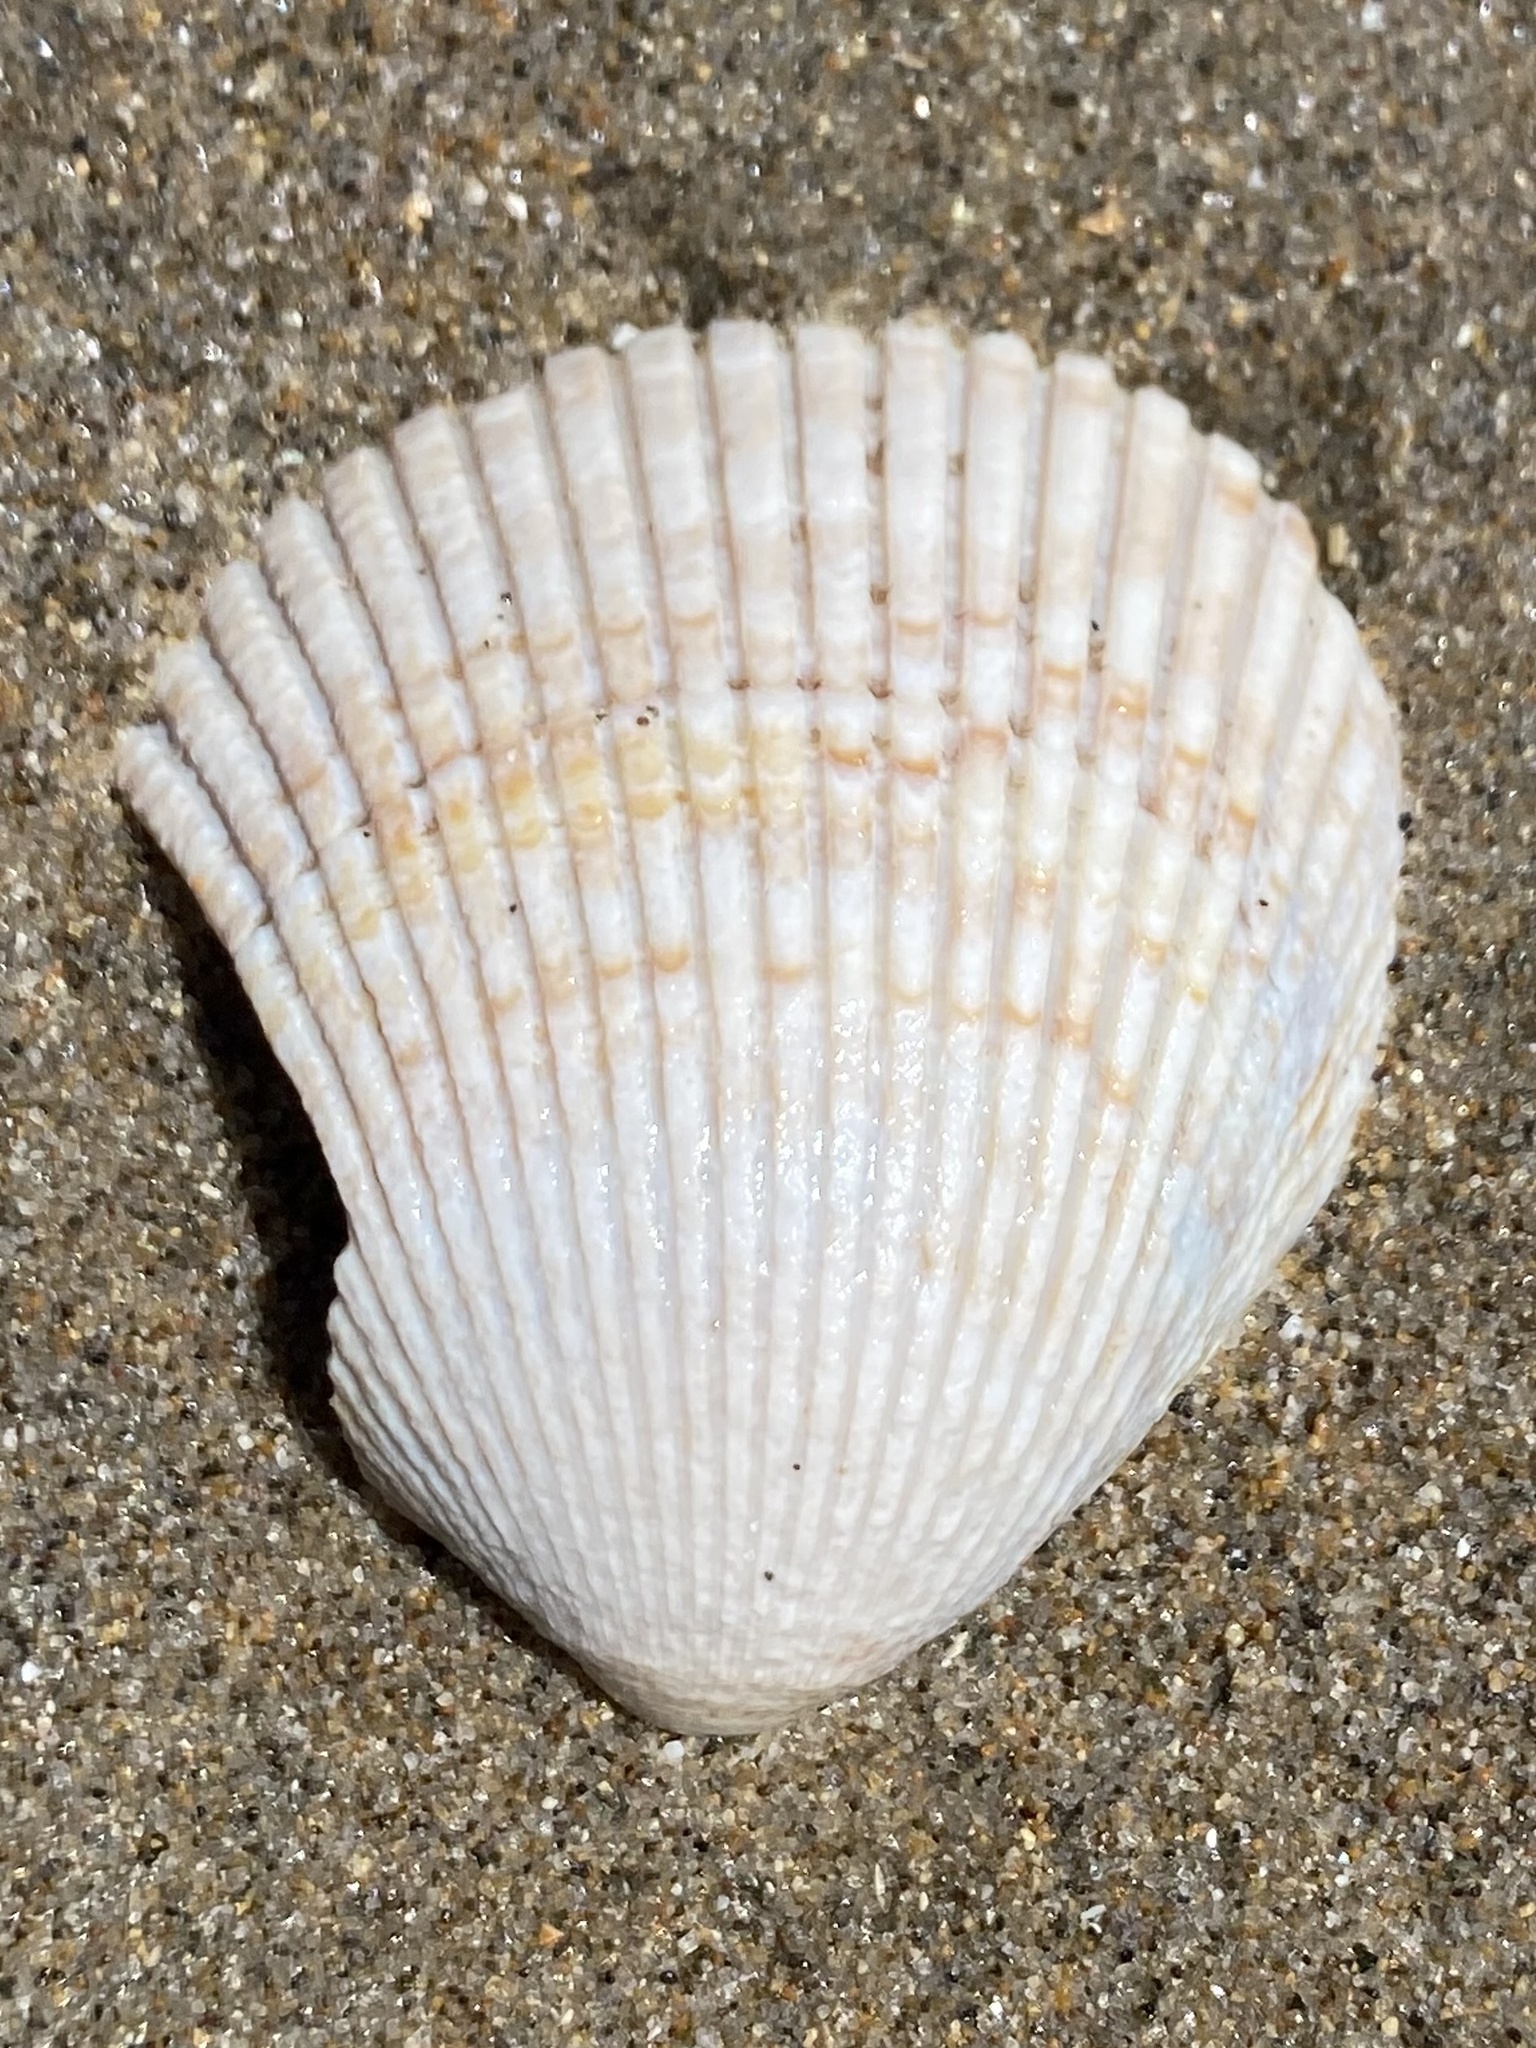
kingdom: Animalia
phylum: Mollusca
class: Bivalvia
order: Cardiida
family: Cardiidae
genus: Clinocardium
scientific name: Clinocardium nuttallii
